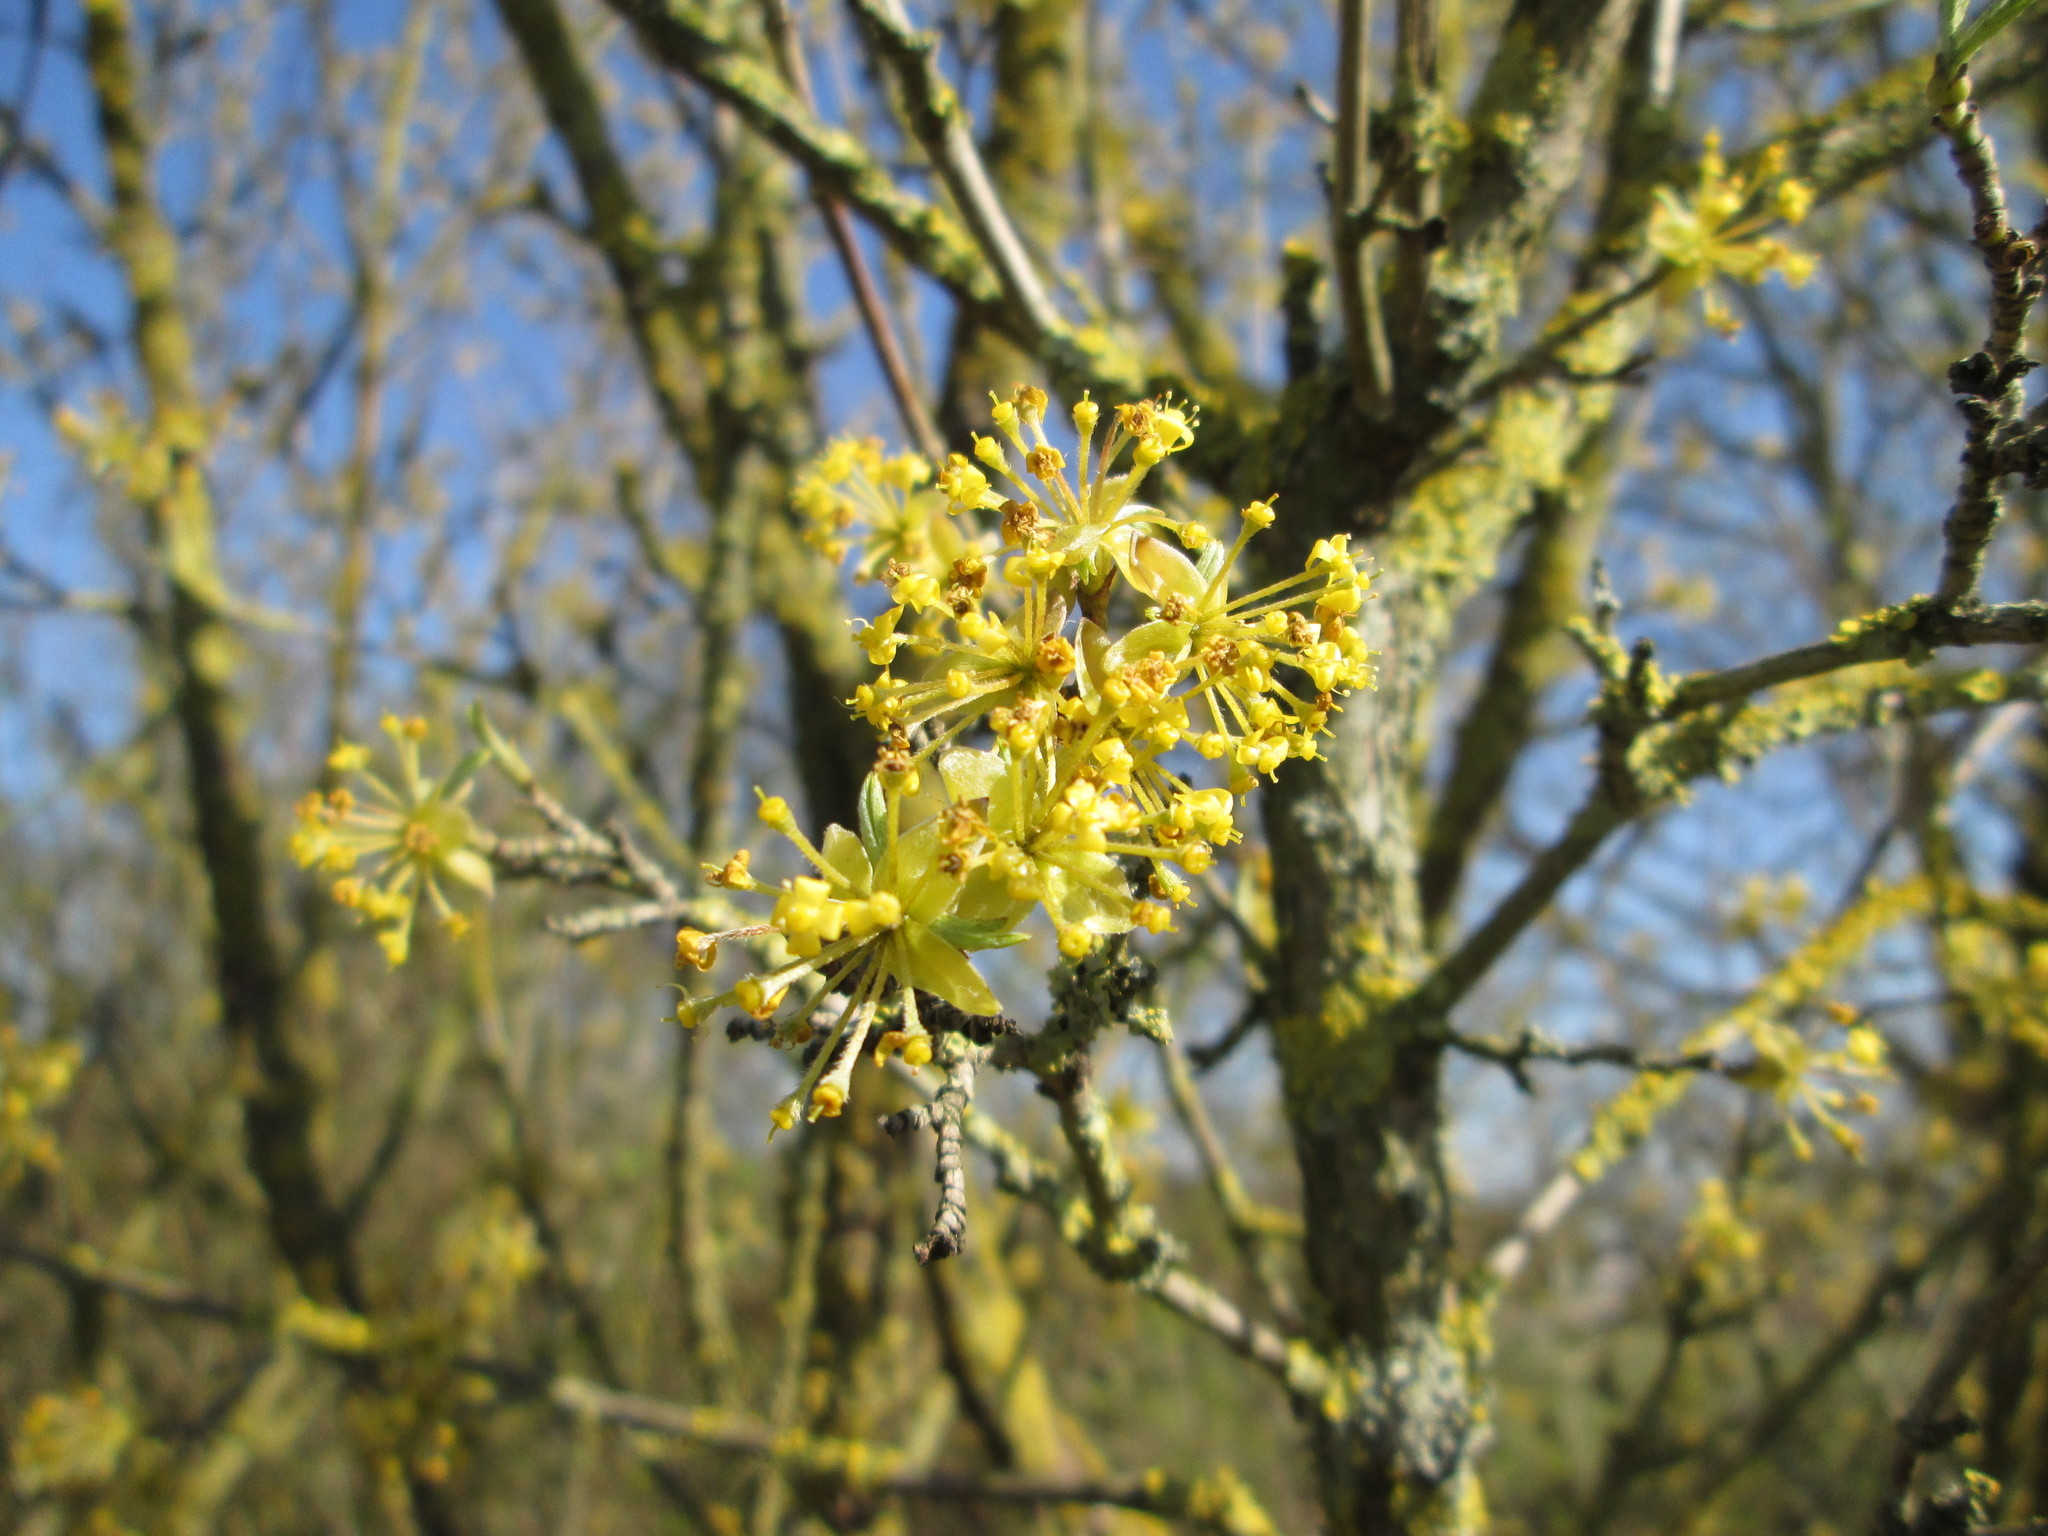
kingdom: Plantae
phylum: Tracheophyta
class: Magnoliopsida
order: Cornales
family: Cornaceae
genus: Cornus
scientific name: Cornus mas
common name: Cornelian-cherry
